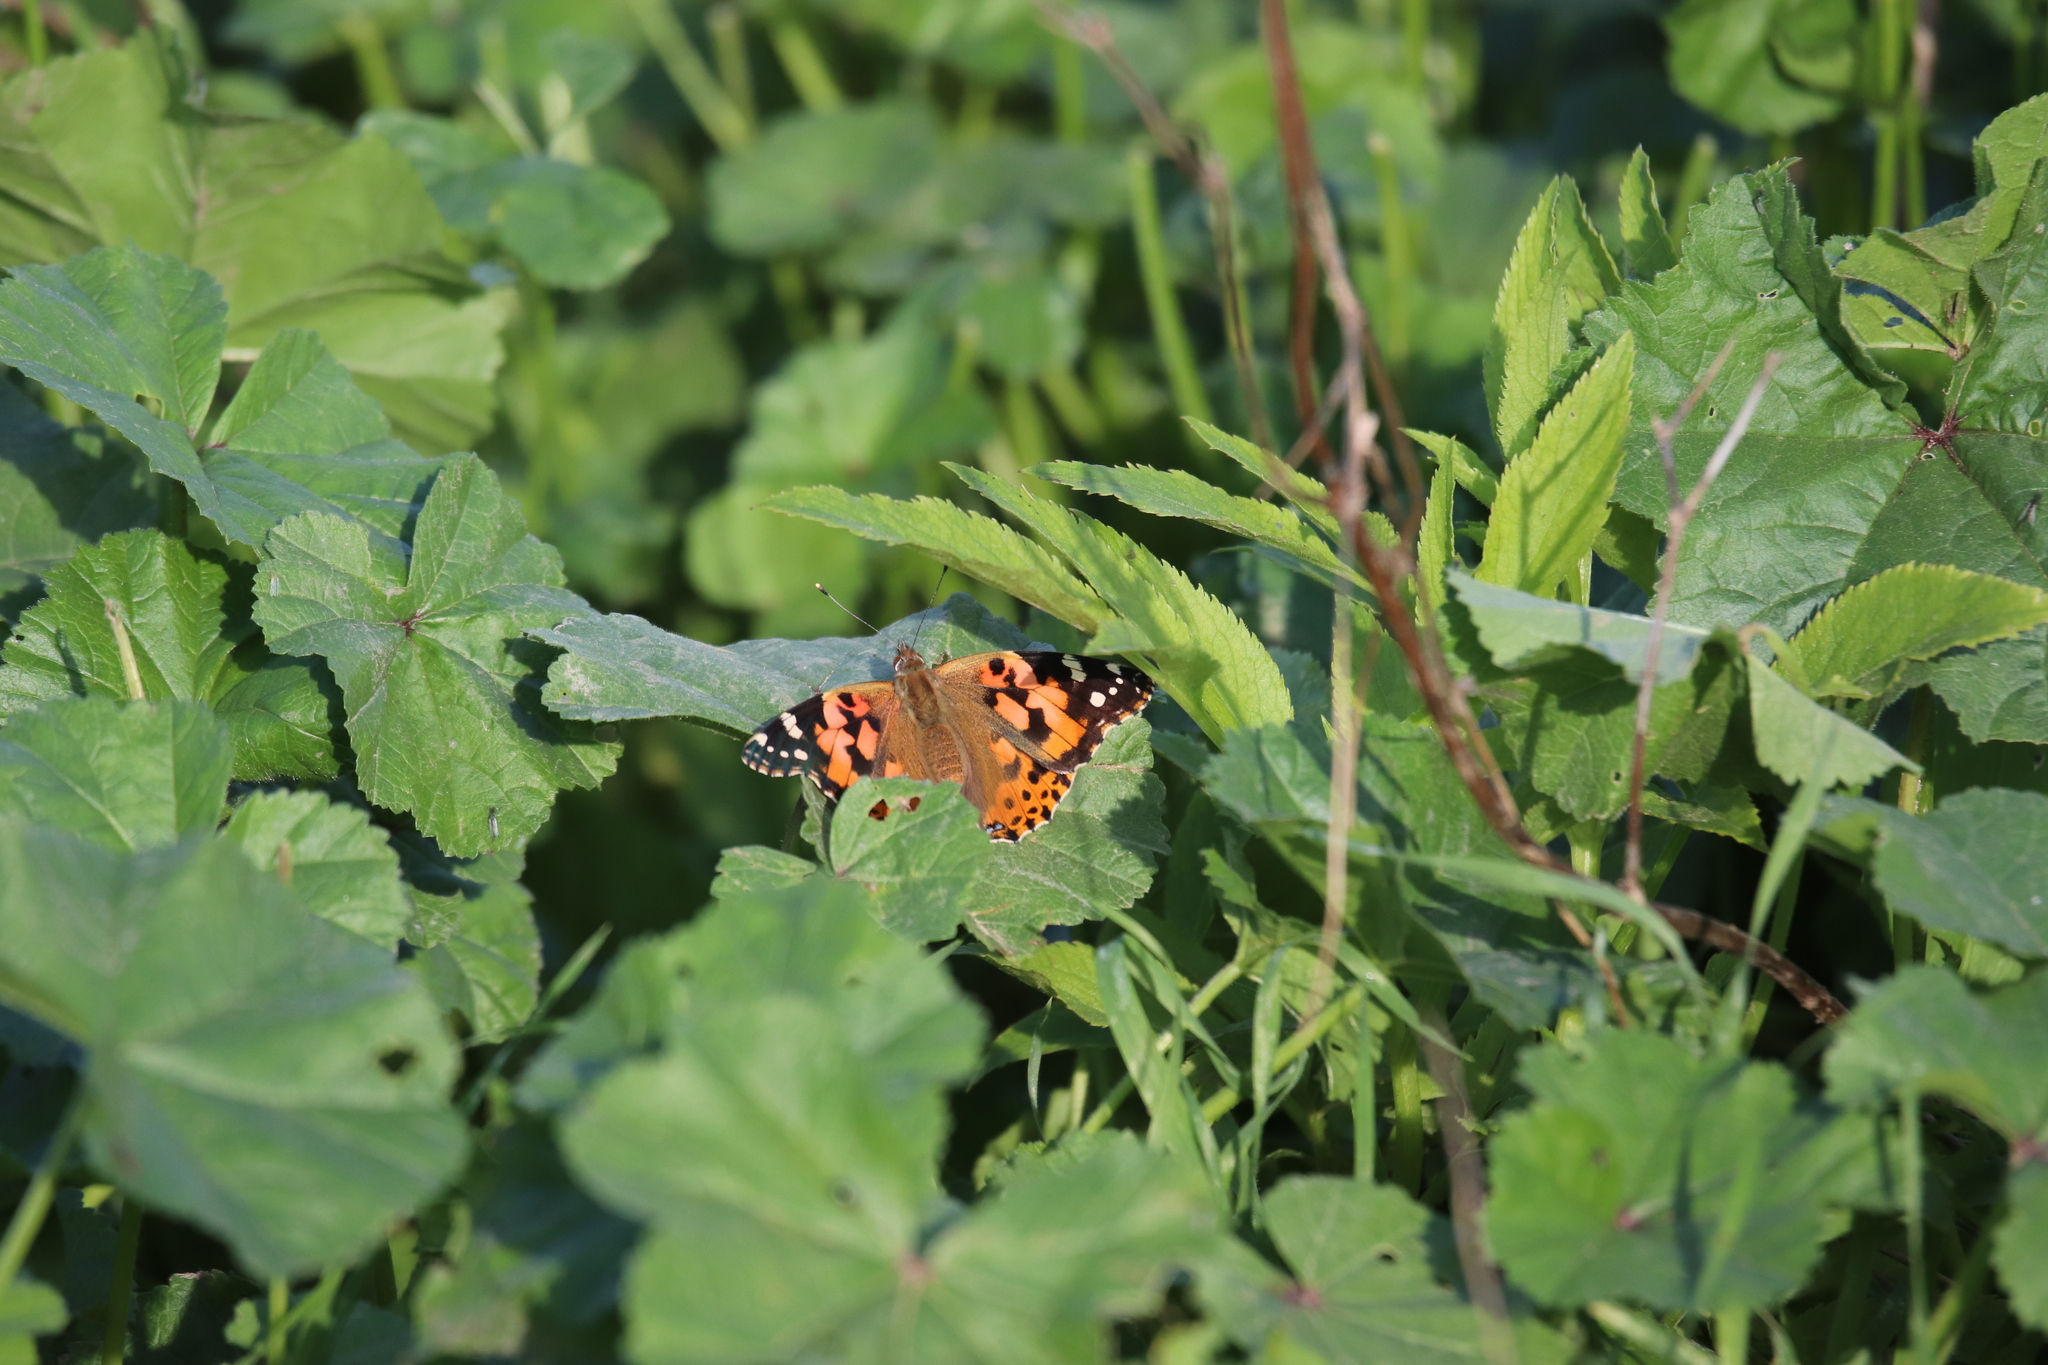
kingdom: Animalia
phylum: Arthropoda
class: Insecta
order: Lepidoptera
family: Nymphalidae
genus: Vanessa
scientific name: Vanessa cardui
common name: Painted lady
